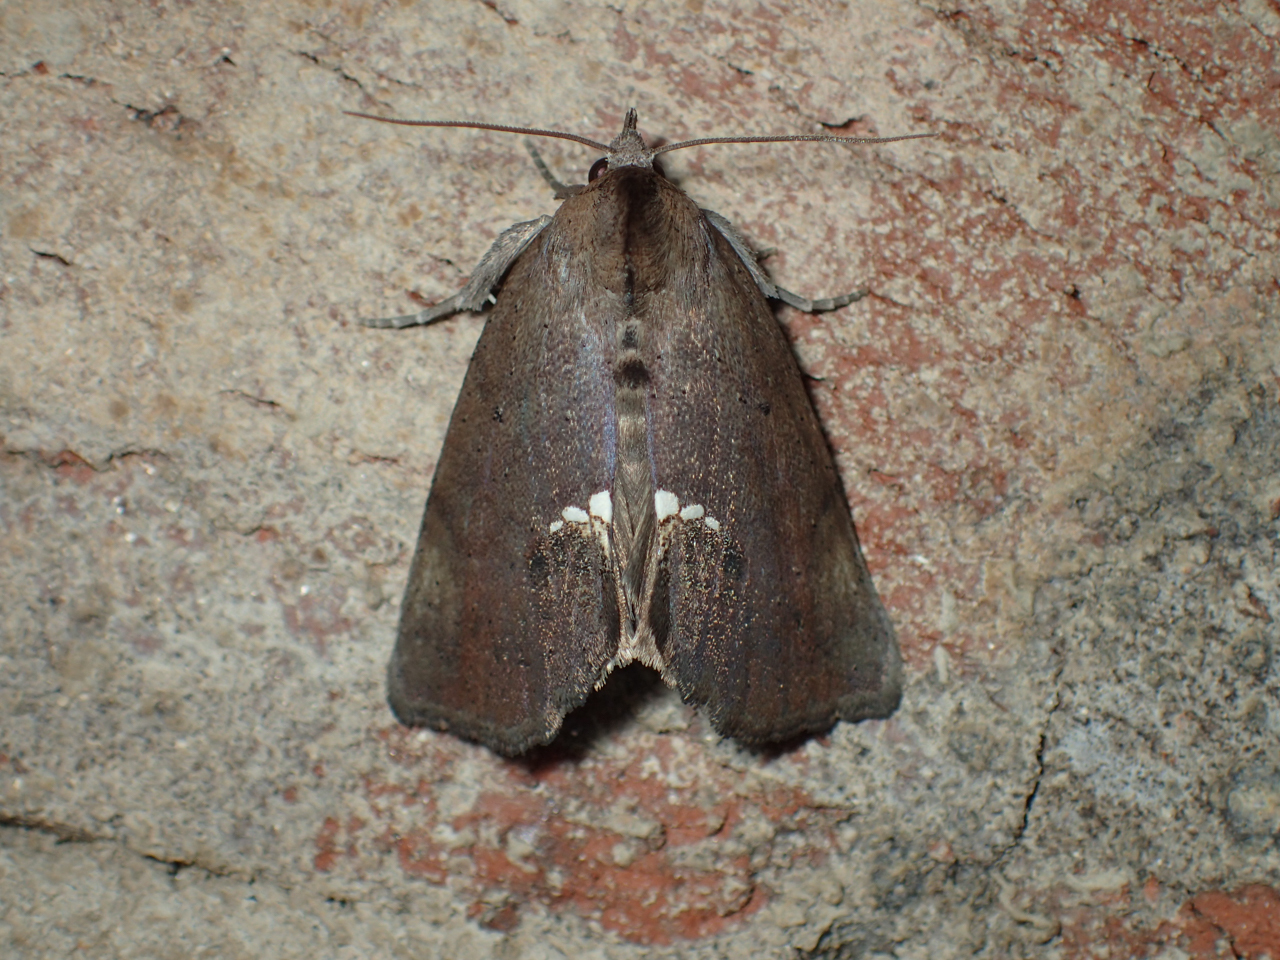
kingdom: Animalia
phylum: Arthropoda
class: Insecta
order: Lepidoptera
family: Erebidae
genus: Hypsoropha
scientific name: Hypsoropha hormos
